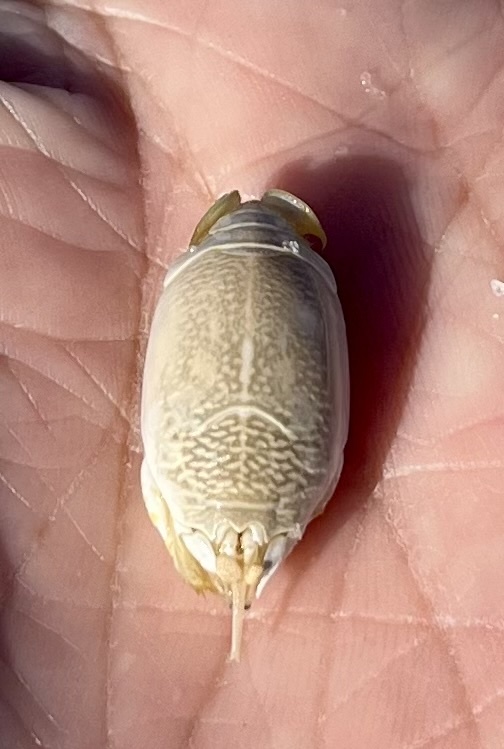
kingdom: Animalia
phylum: Arthropoda
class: Malacostraca
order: Decapoda
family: Hippidae
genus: Emerita
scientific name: Emerita talpoida
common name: Atlantic sand crab
